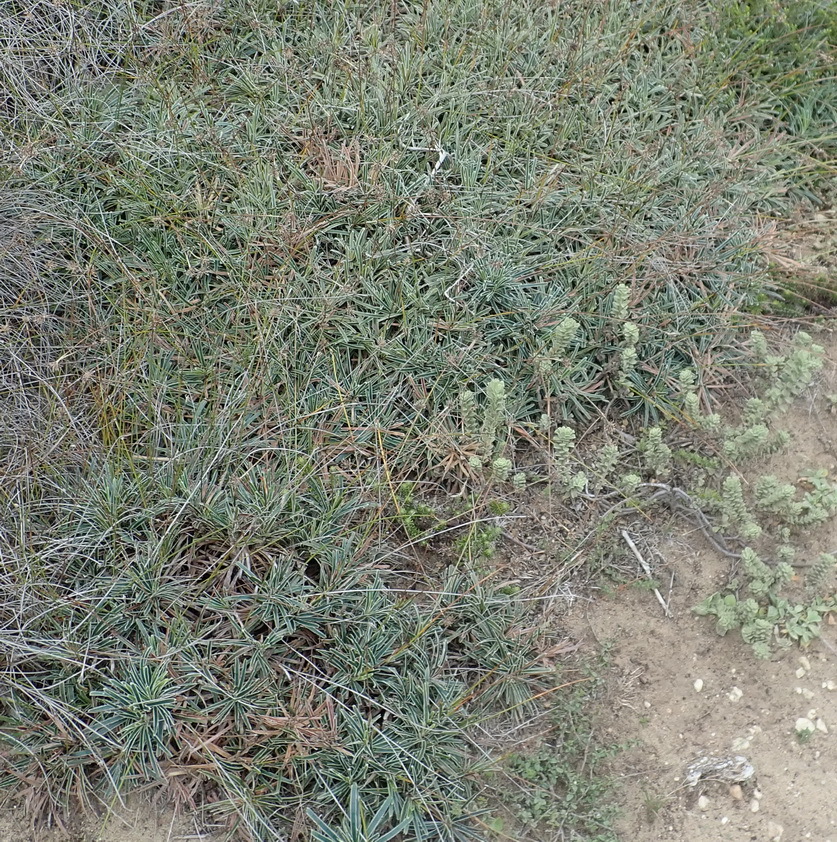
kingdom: Plantae
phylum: Tracheophyta
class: Liliopsida
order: Poales
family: Cyperaceae
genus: Ficinia
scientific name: Ficinia truncata
